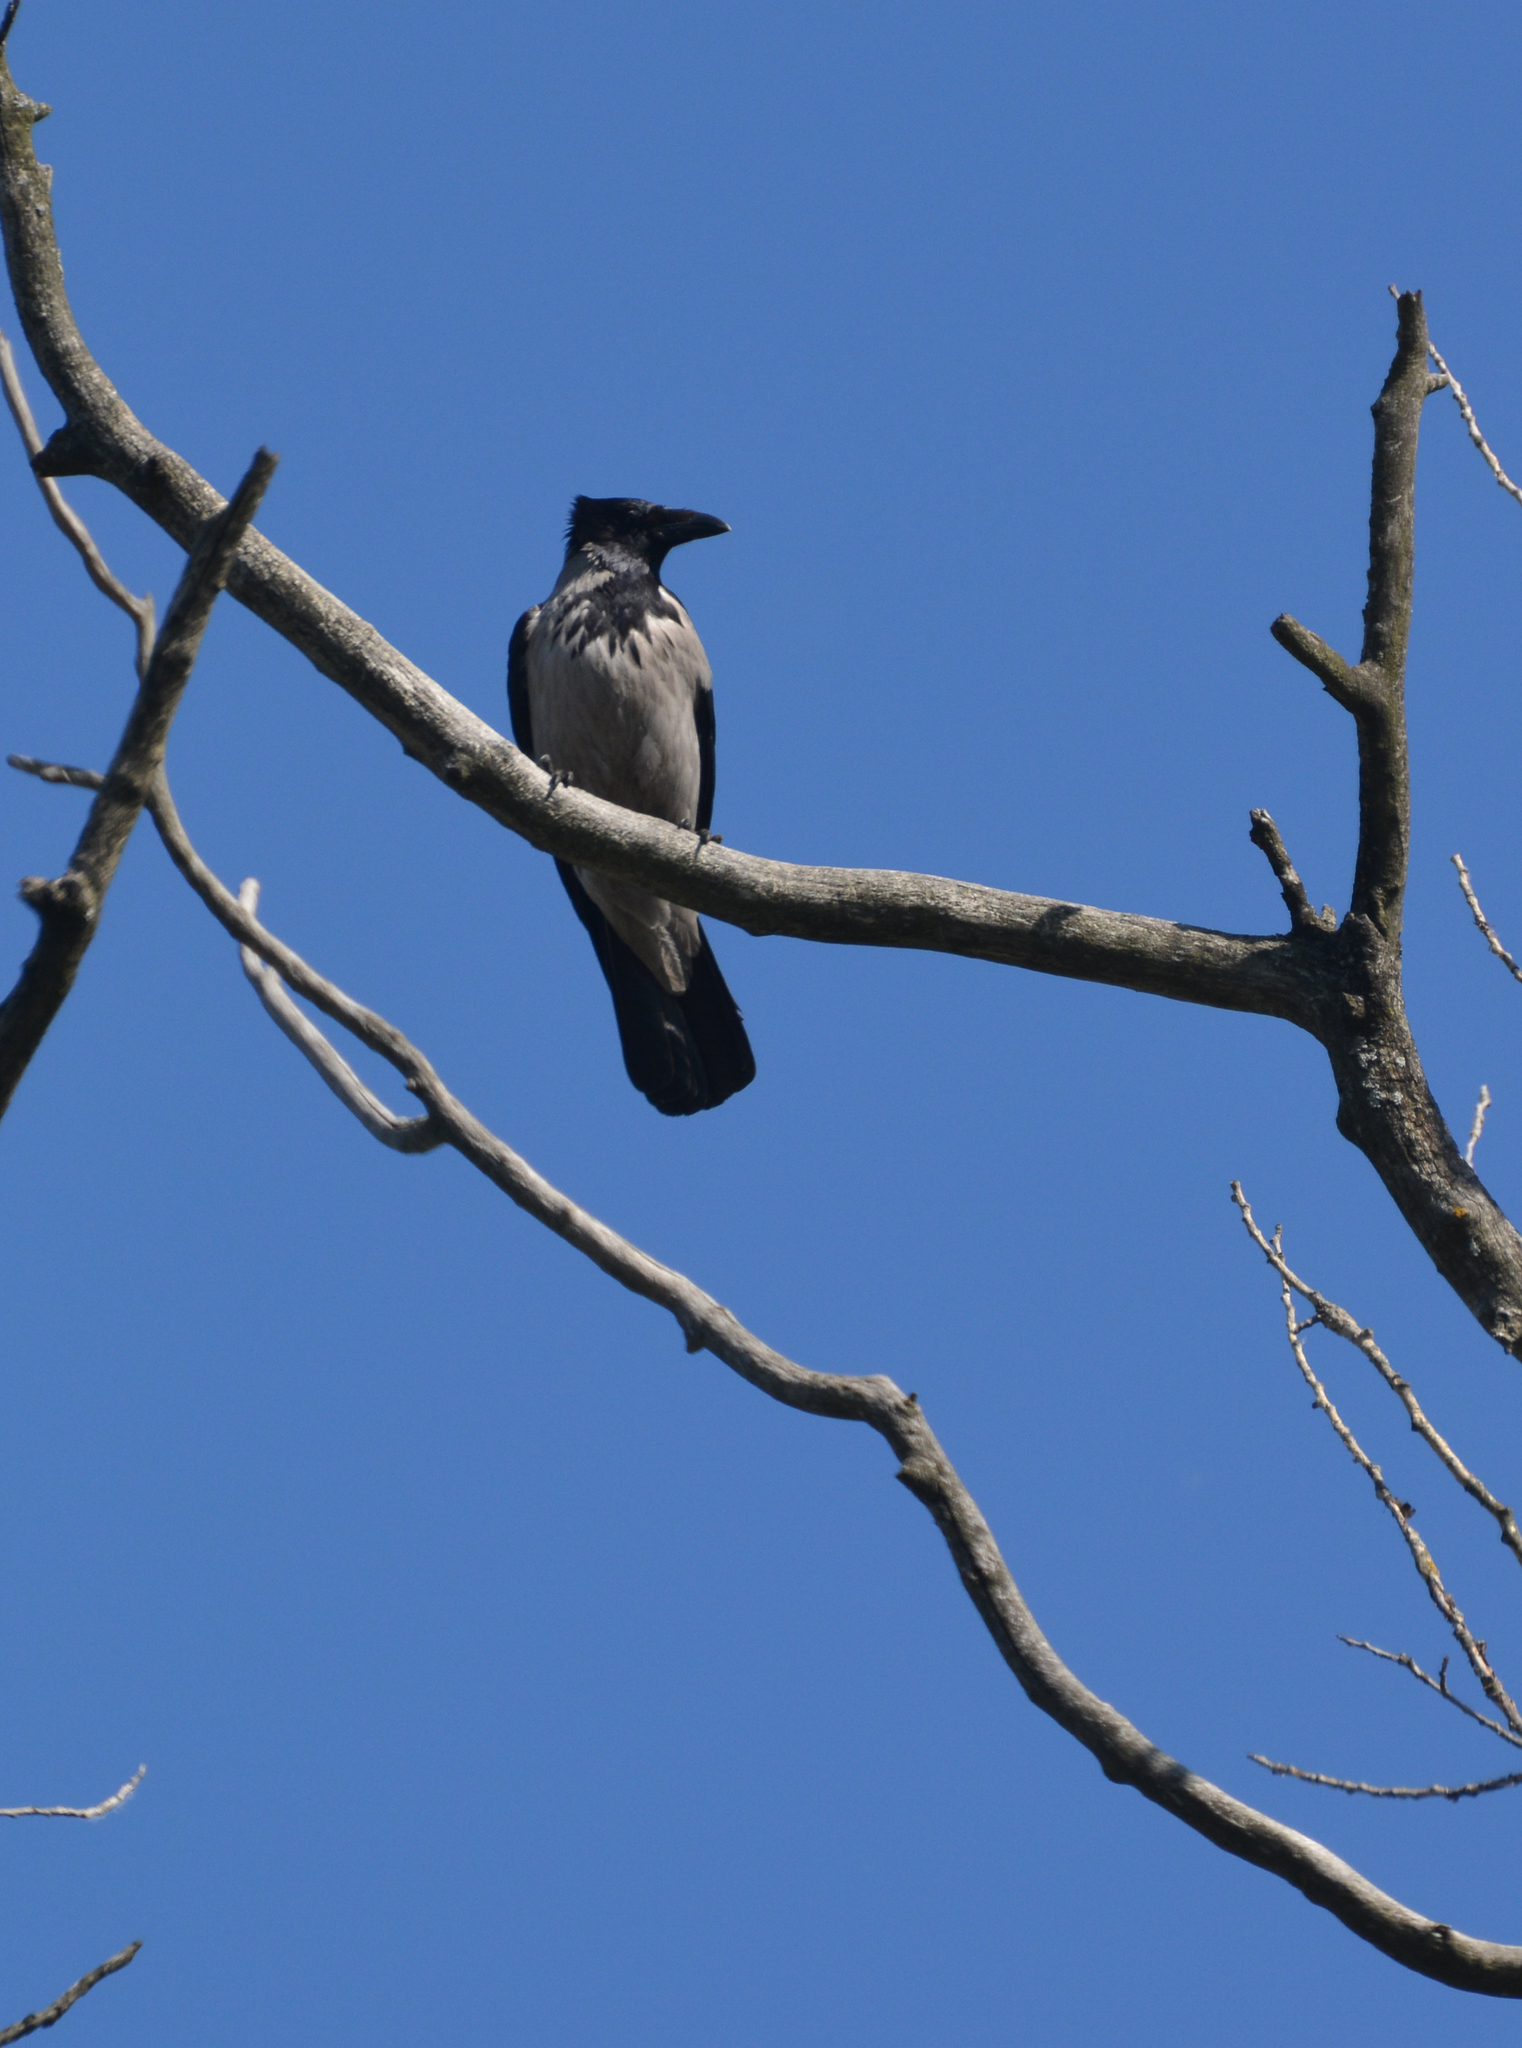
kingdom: Animalia
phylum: Chordata
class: Aves
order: Passeriformes
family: Corvidae
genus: Corvus
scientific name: Corvus cornix
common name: Hooded crow
